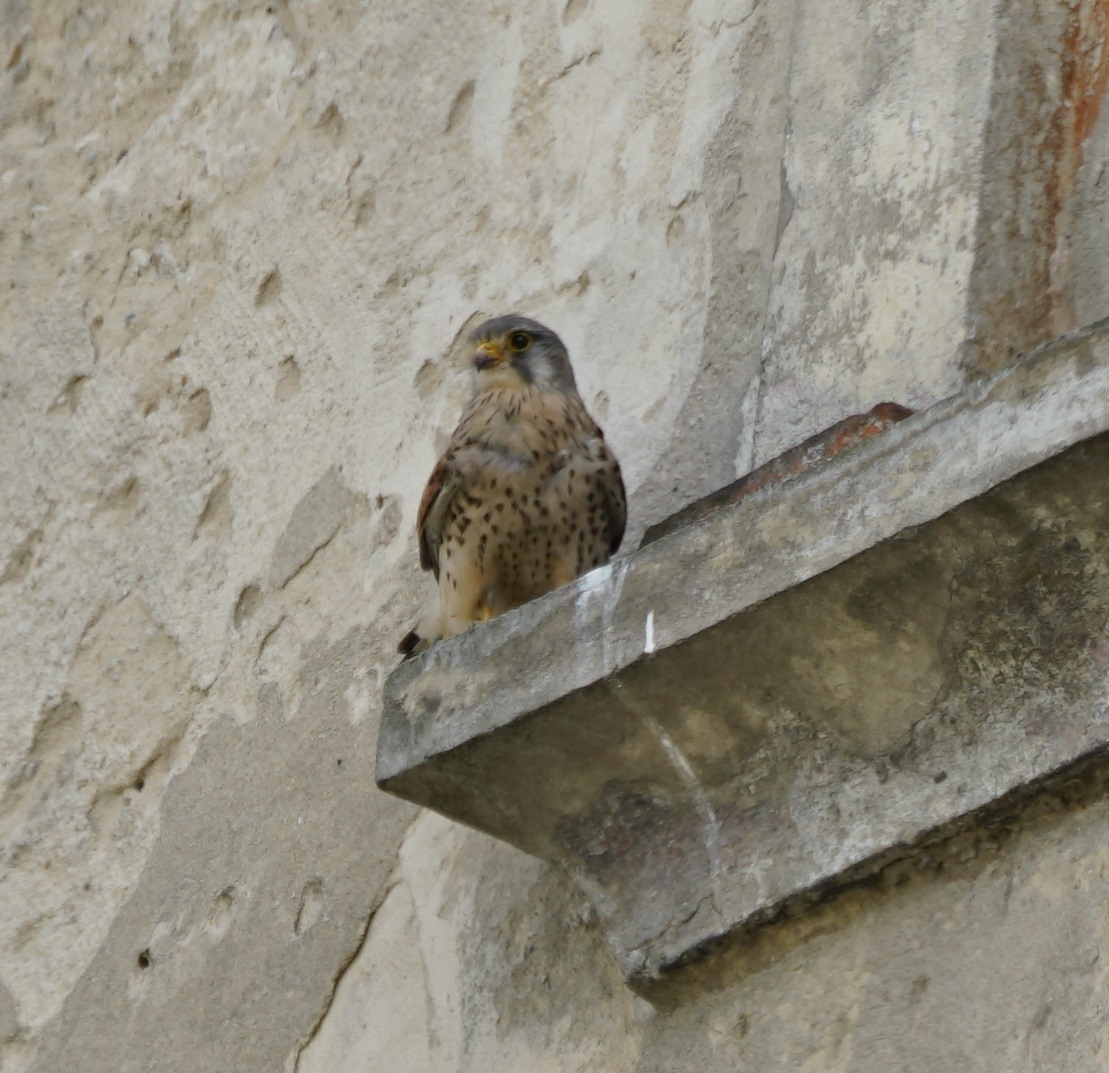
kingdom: Animalia
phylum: Chordata
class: Aves
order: Falconiformes
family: Falconidae
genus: Falco
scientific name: Falco tinnunculus
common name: Common kestrel
